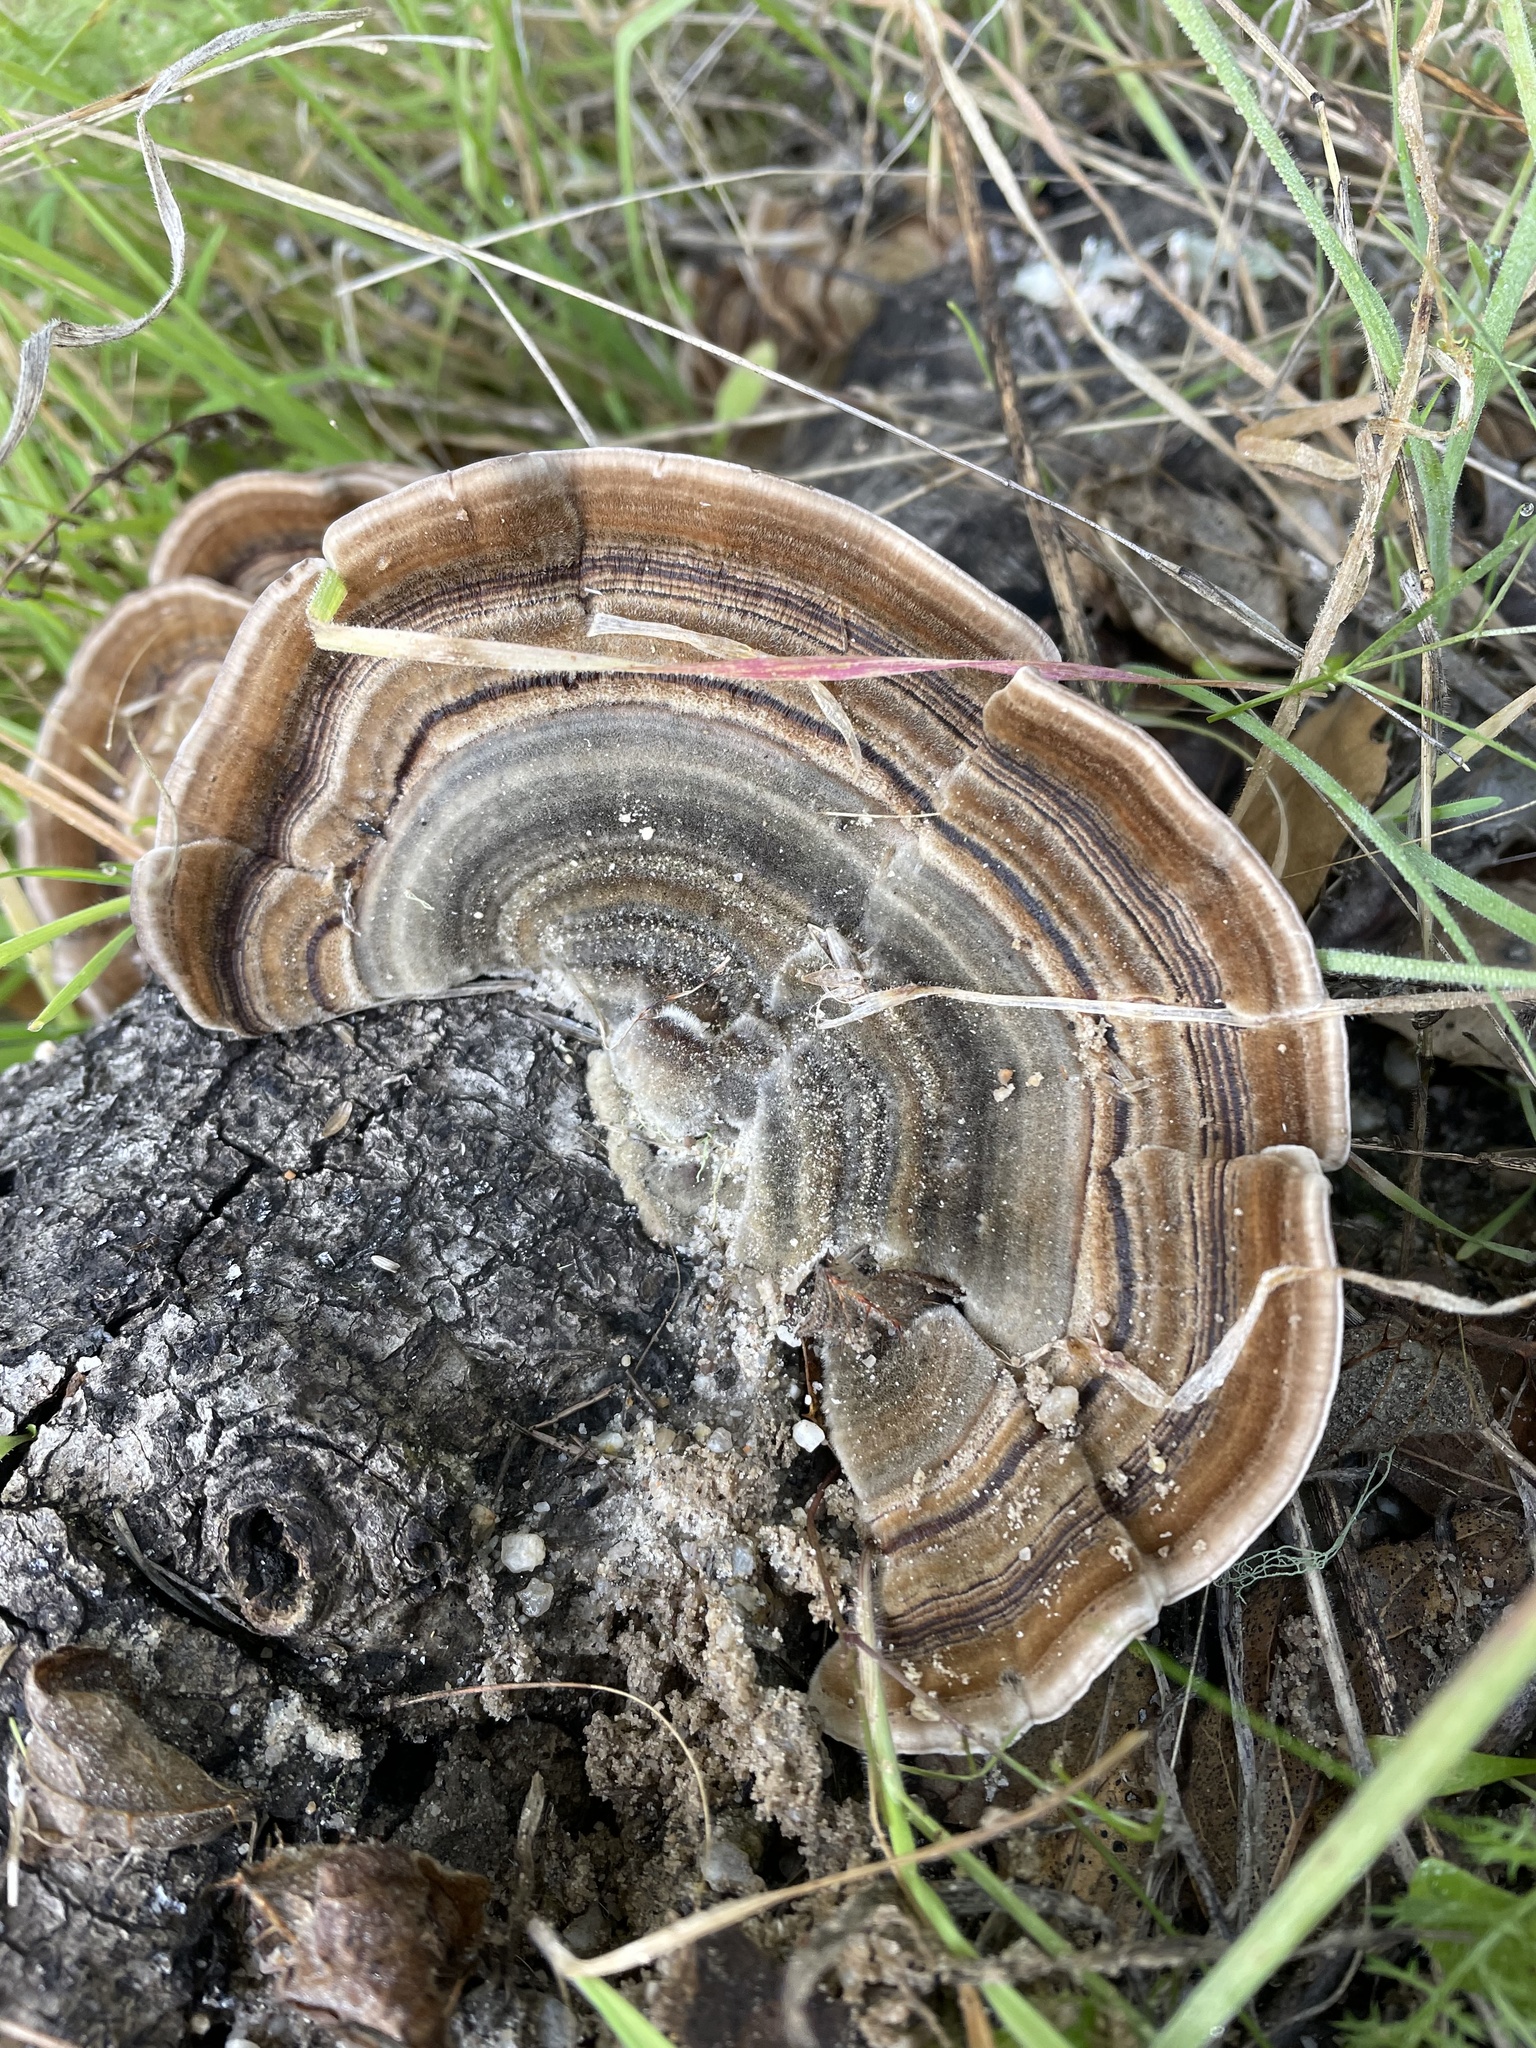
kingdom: Fungi
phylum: Basidiomycota
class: Agaricomycetes
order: Polyporales
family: Polyporaceae
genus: Trametes
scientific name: Trametes versicolor
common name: Turkeytail
